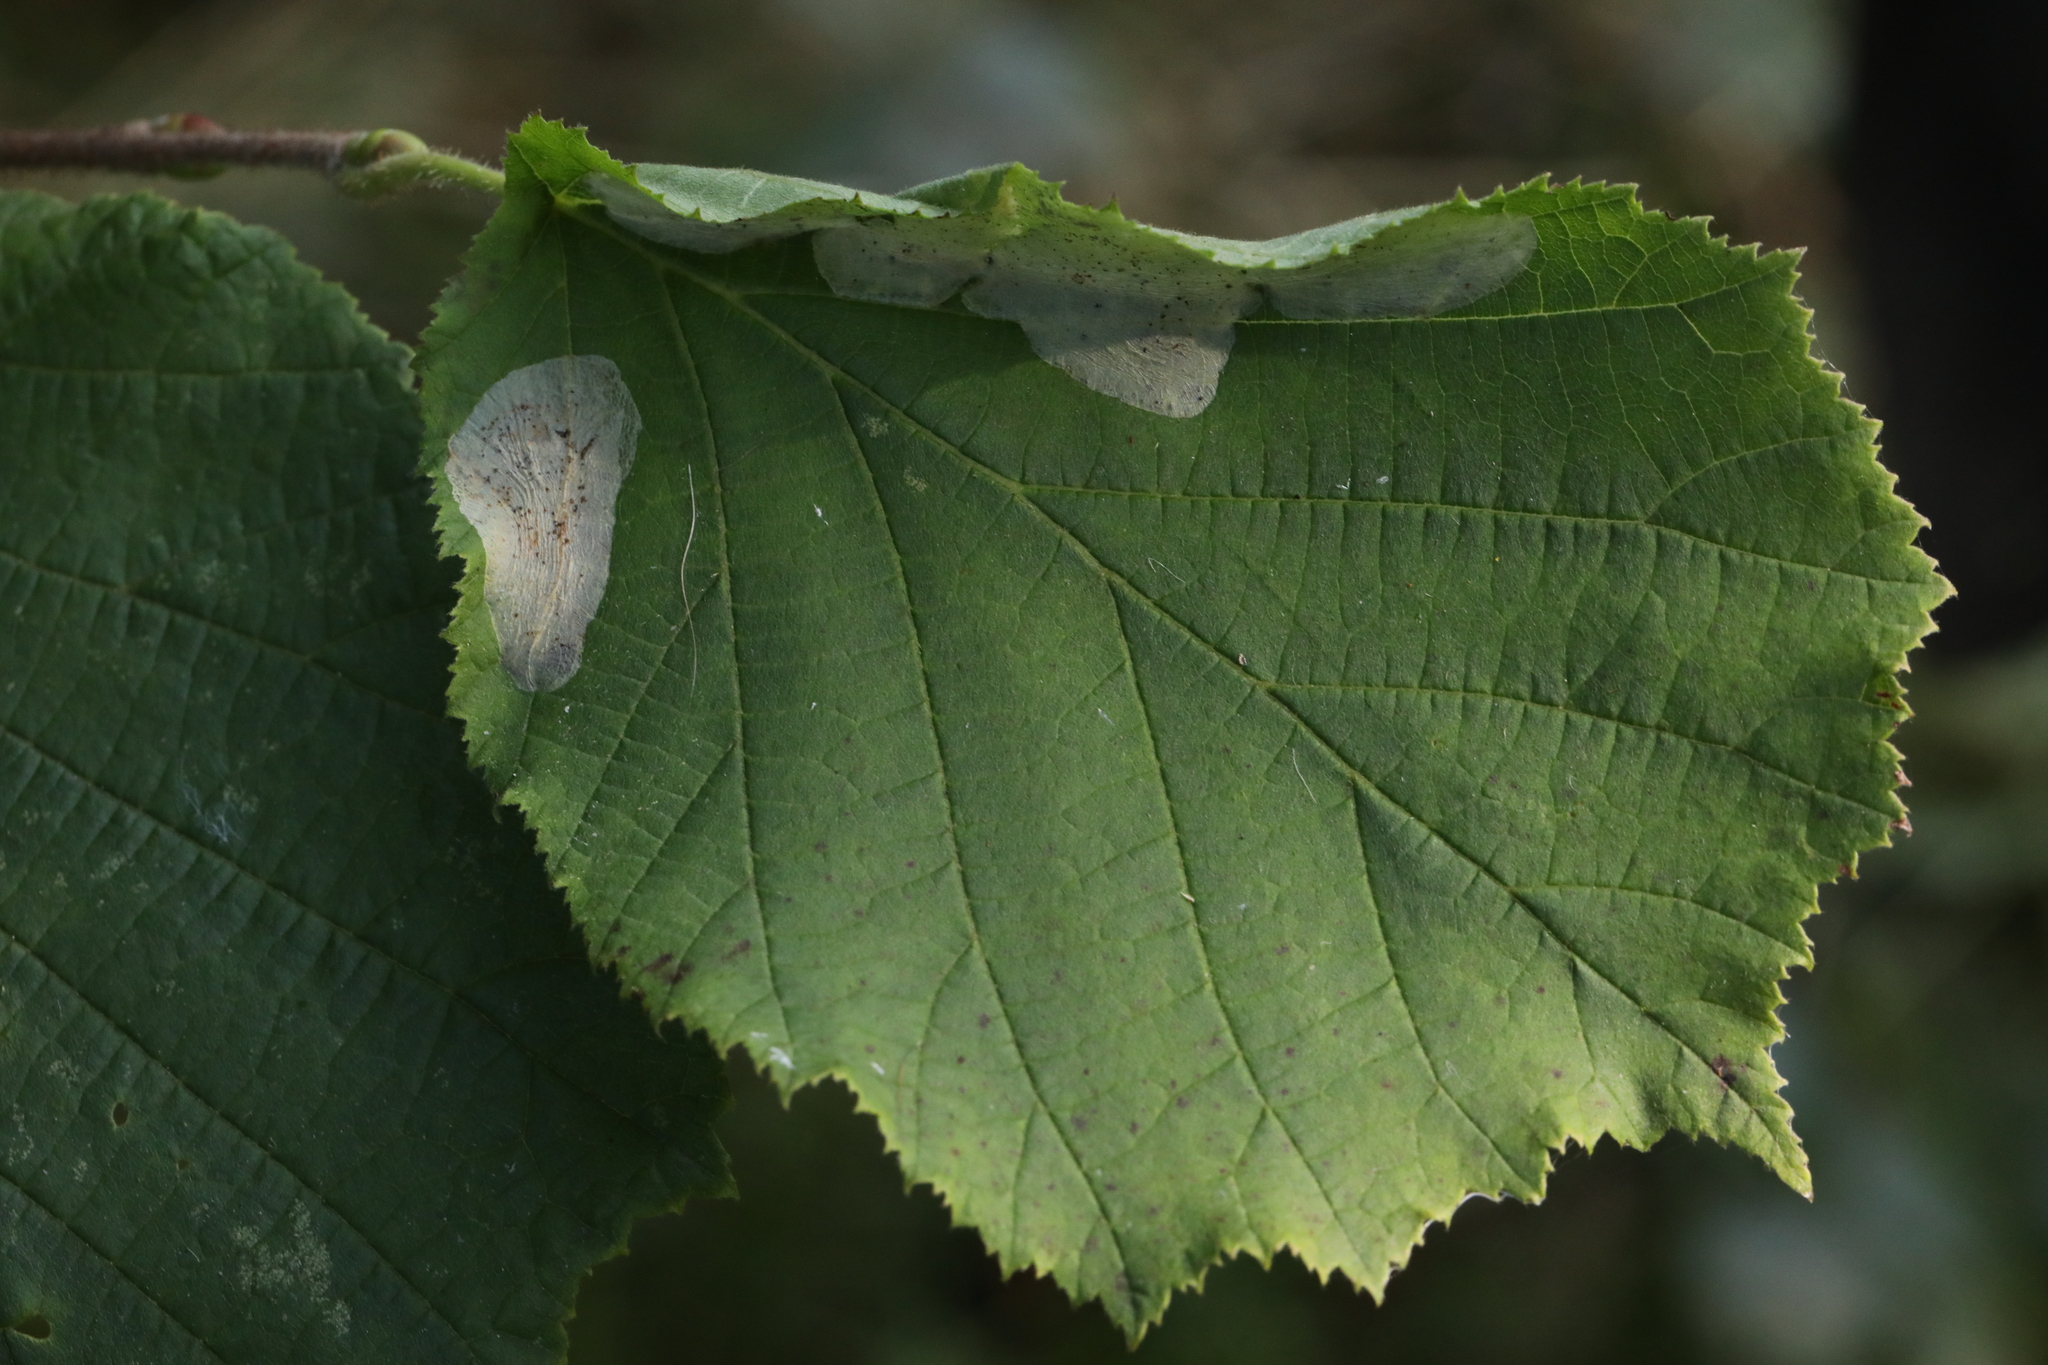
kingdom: Animalia
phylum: Arthropoda
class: Insecta
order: Lepidoptera
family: Gracillariidae
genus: Phyllonorycter
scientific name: Phyllonorycter coryli
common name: Nut-leaf blister moth
